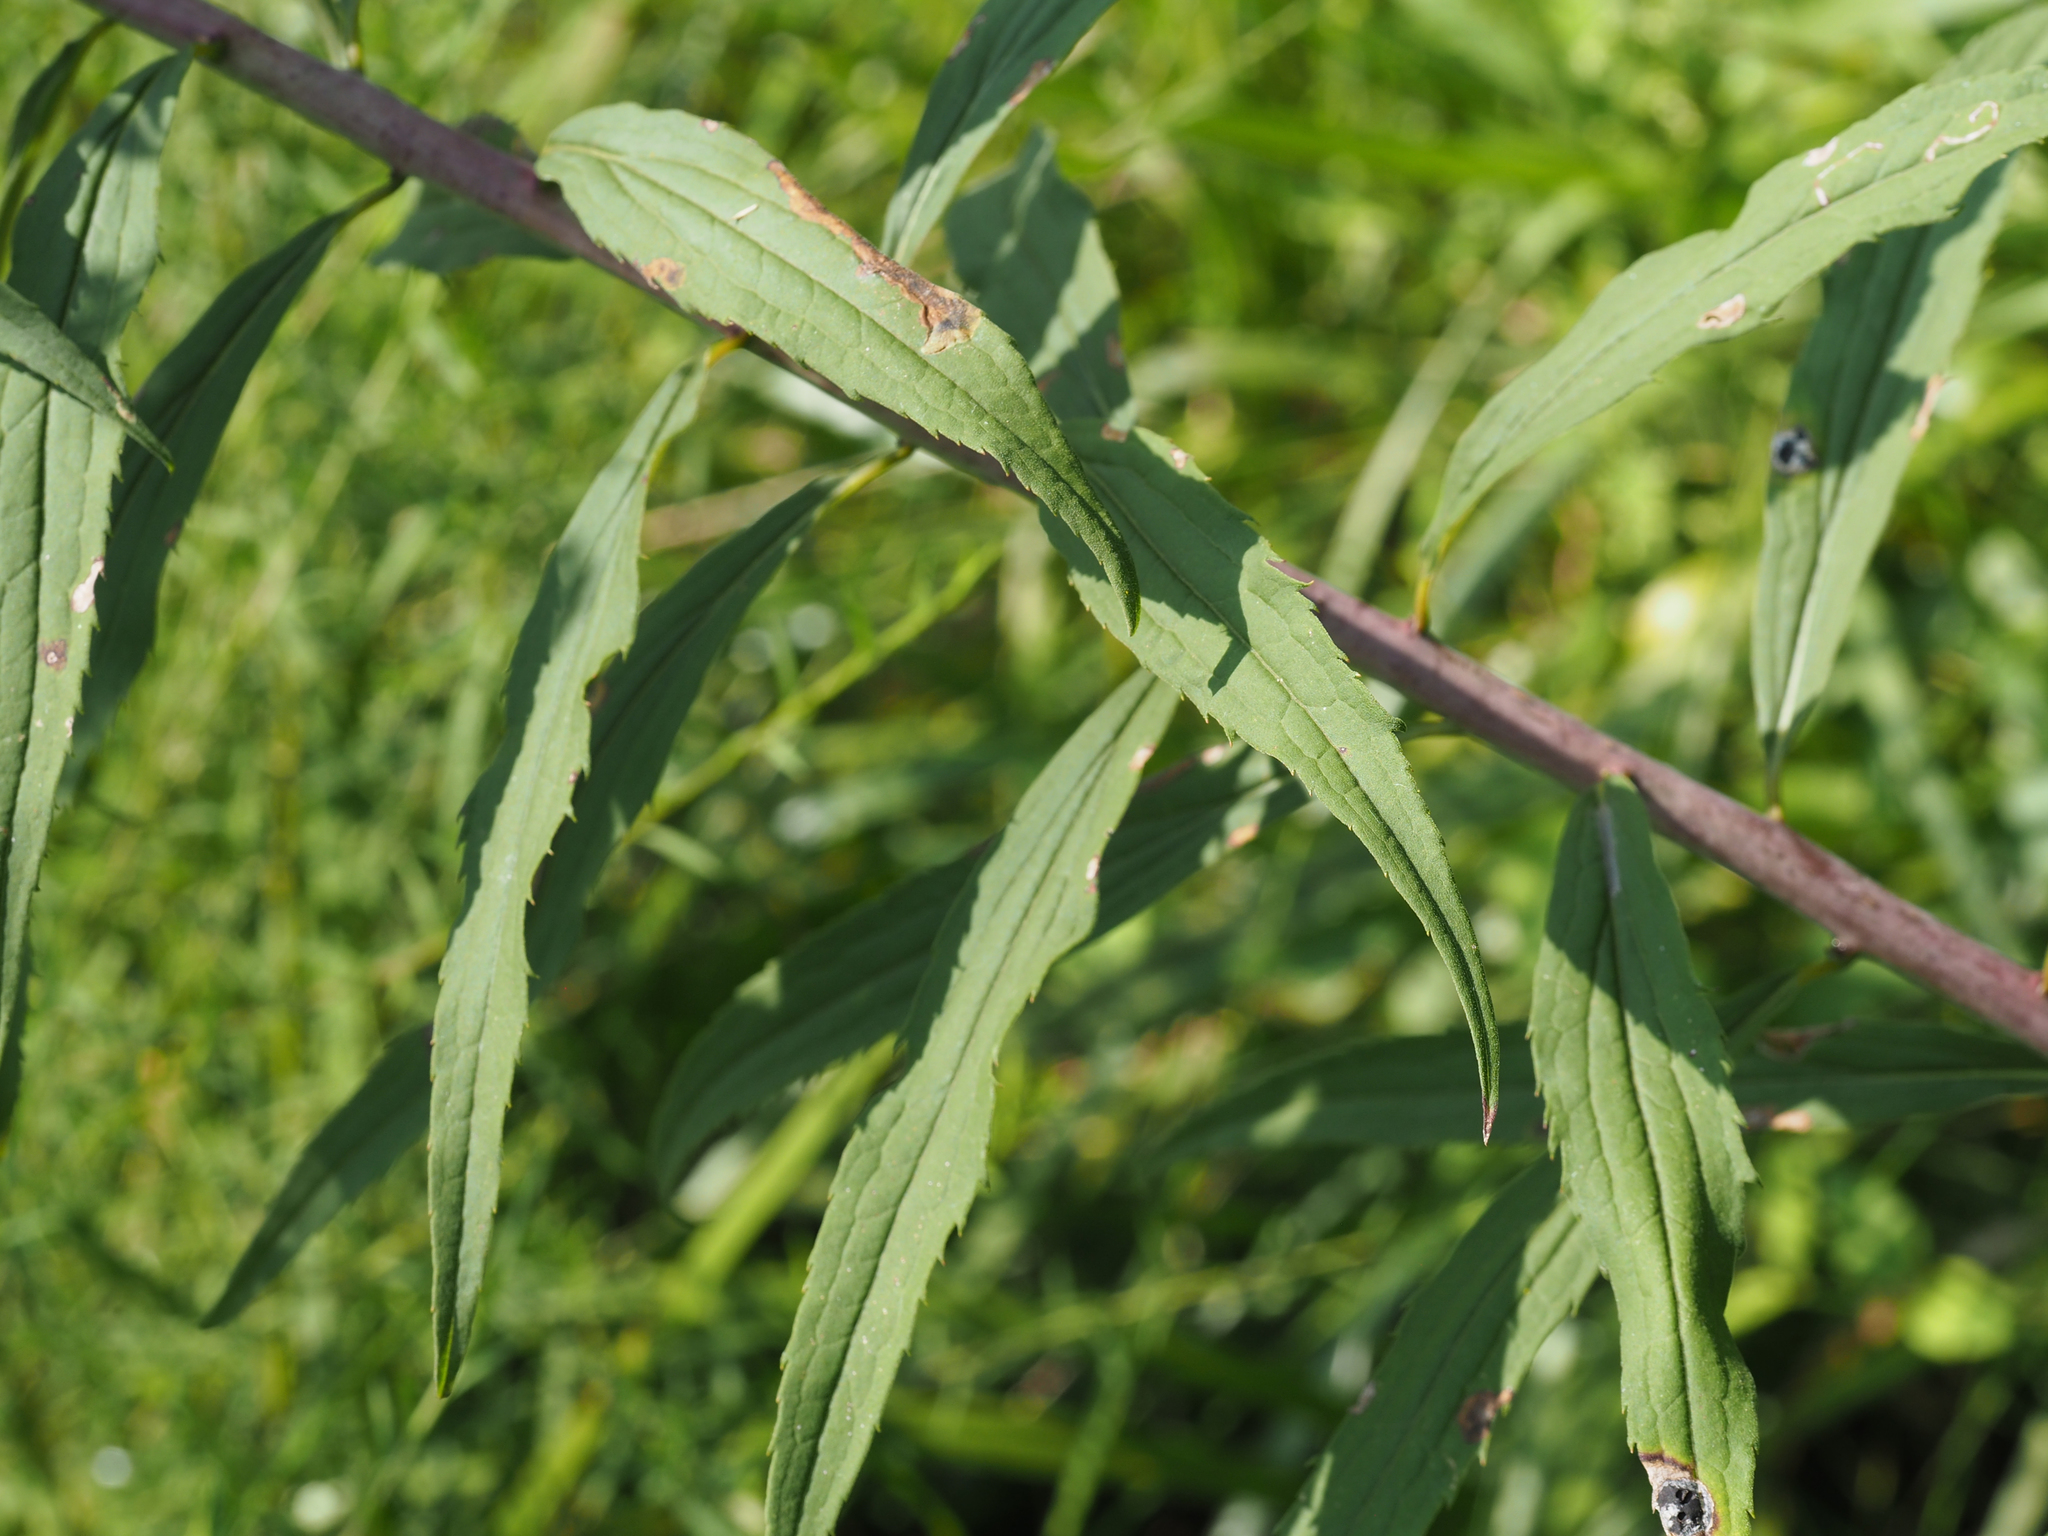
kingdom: Plantae
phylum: Tracheophyta
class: Magnoliopsida
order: Asterales
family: Asteraceae
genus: Solidago
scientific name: Solidago gigantea
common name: Giant goldenrod
